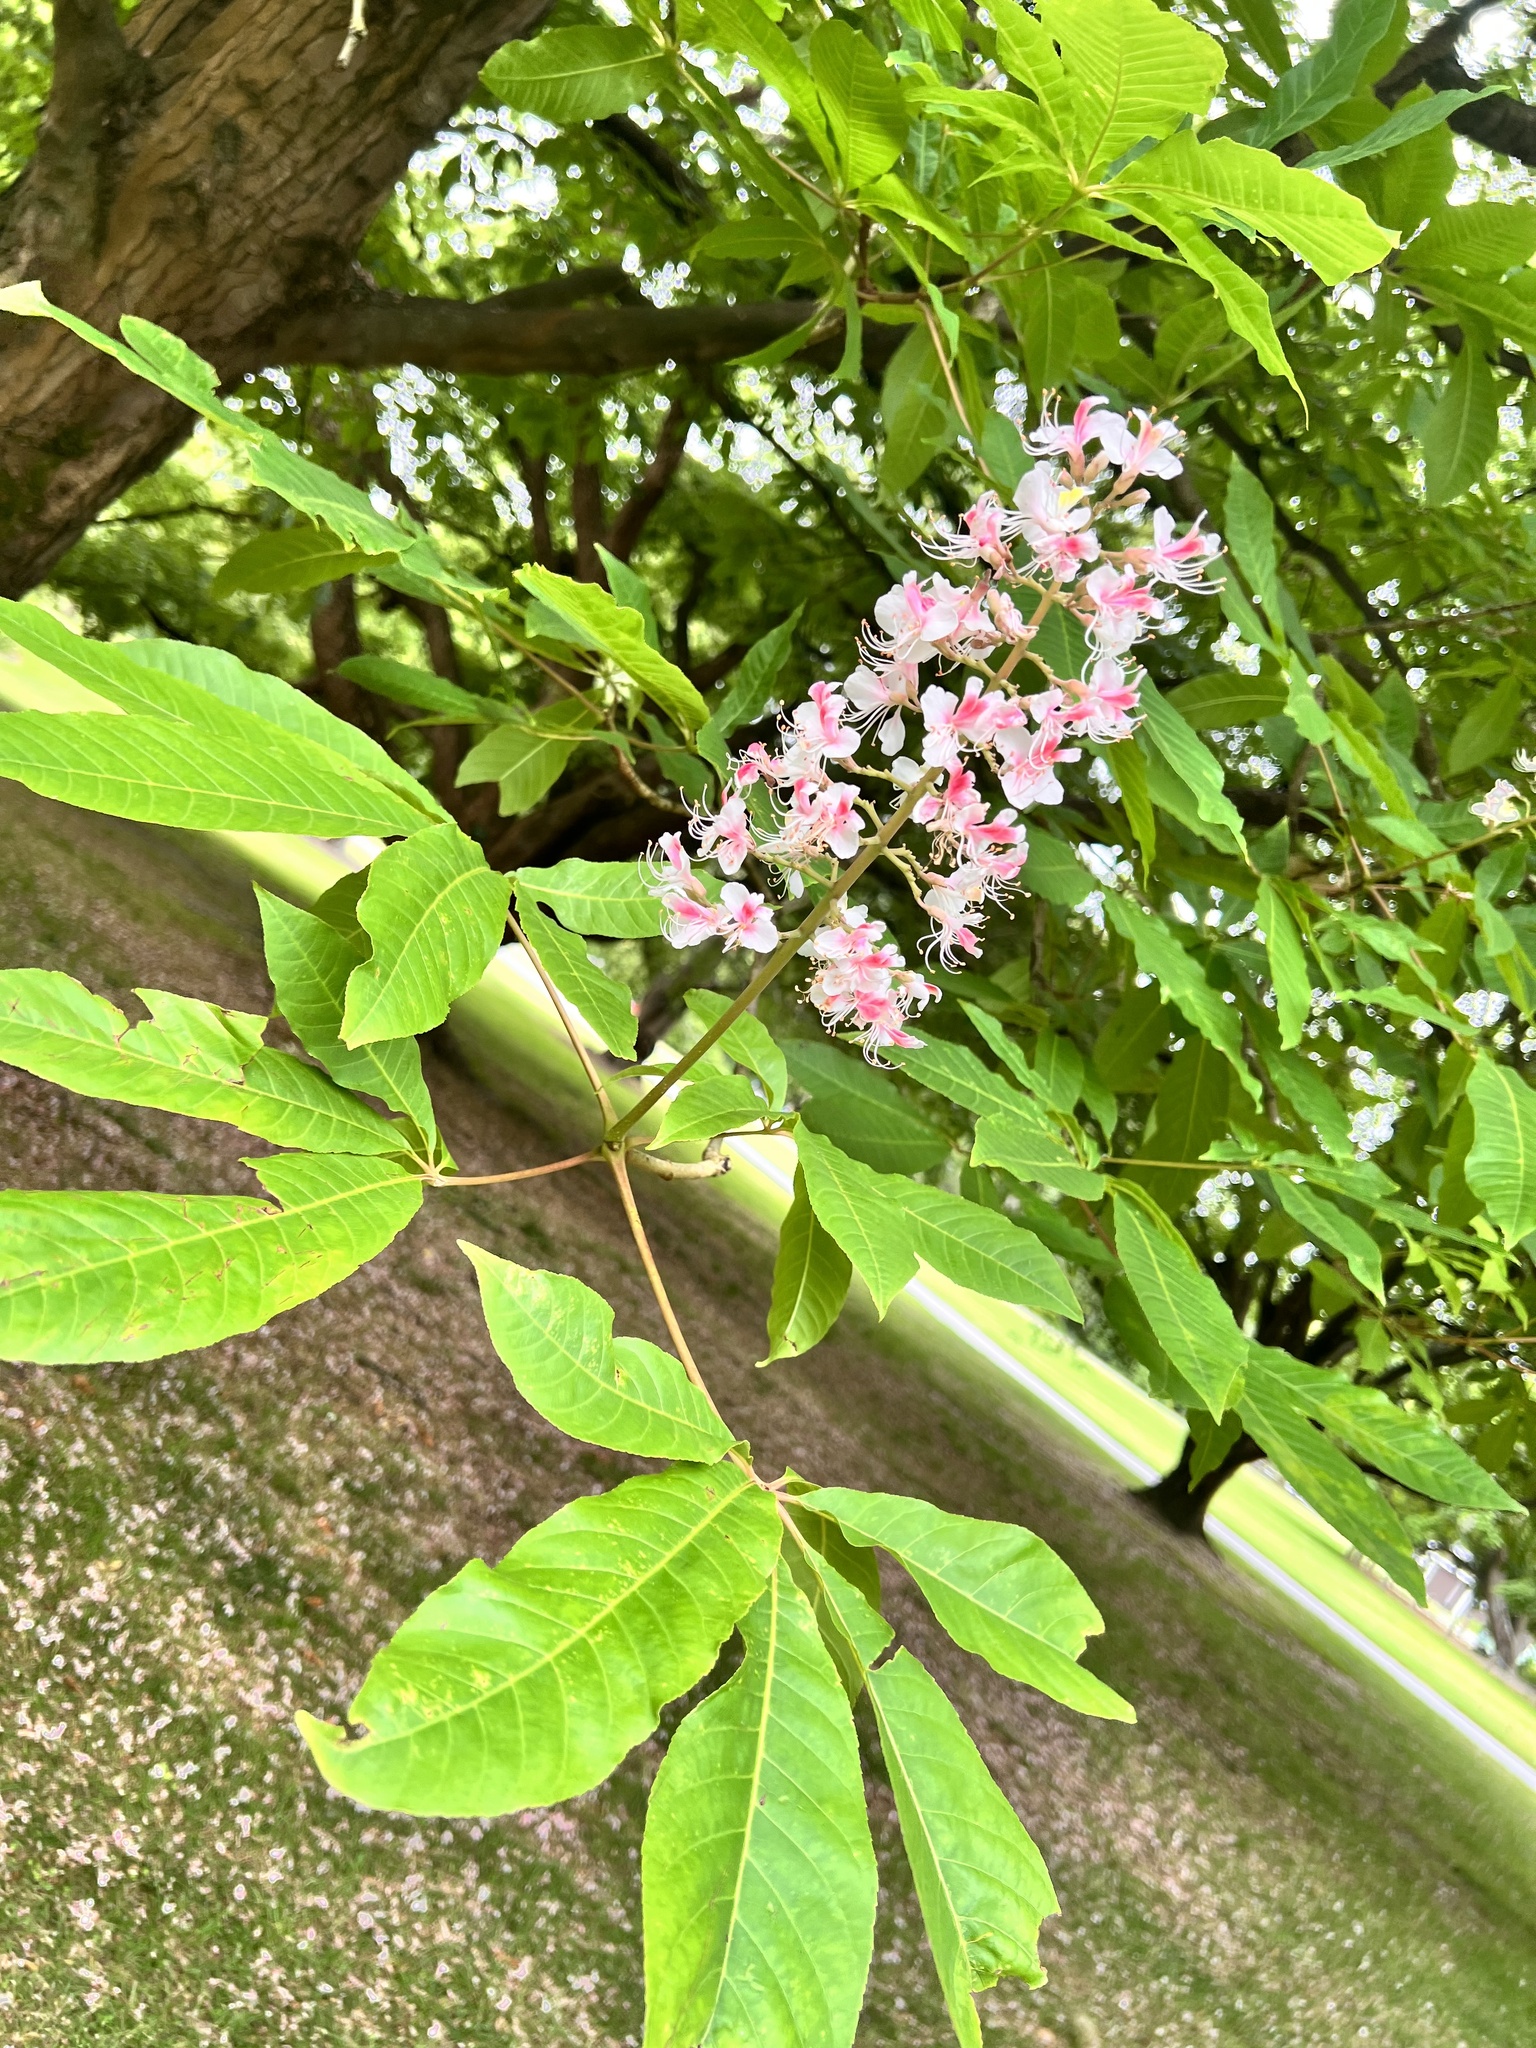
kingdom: Plantae
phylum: Tracheophyta
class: Magnoliopsida
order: Sapindales
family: Sapindaceae
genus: Aesculus
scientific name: Aesculus indica
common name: Indian horse-chestnut
